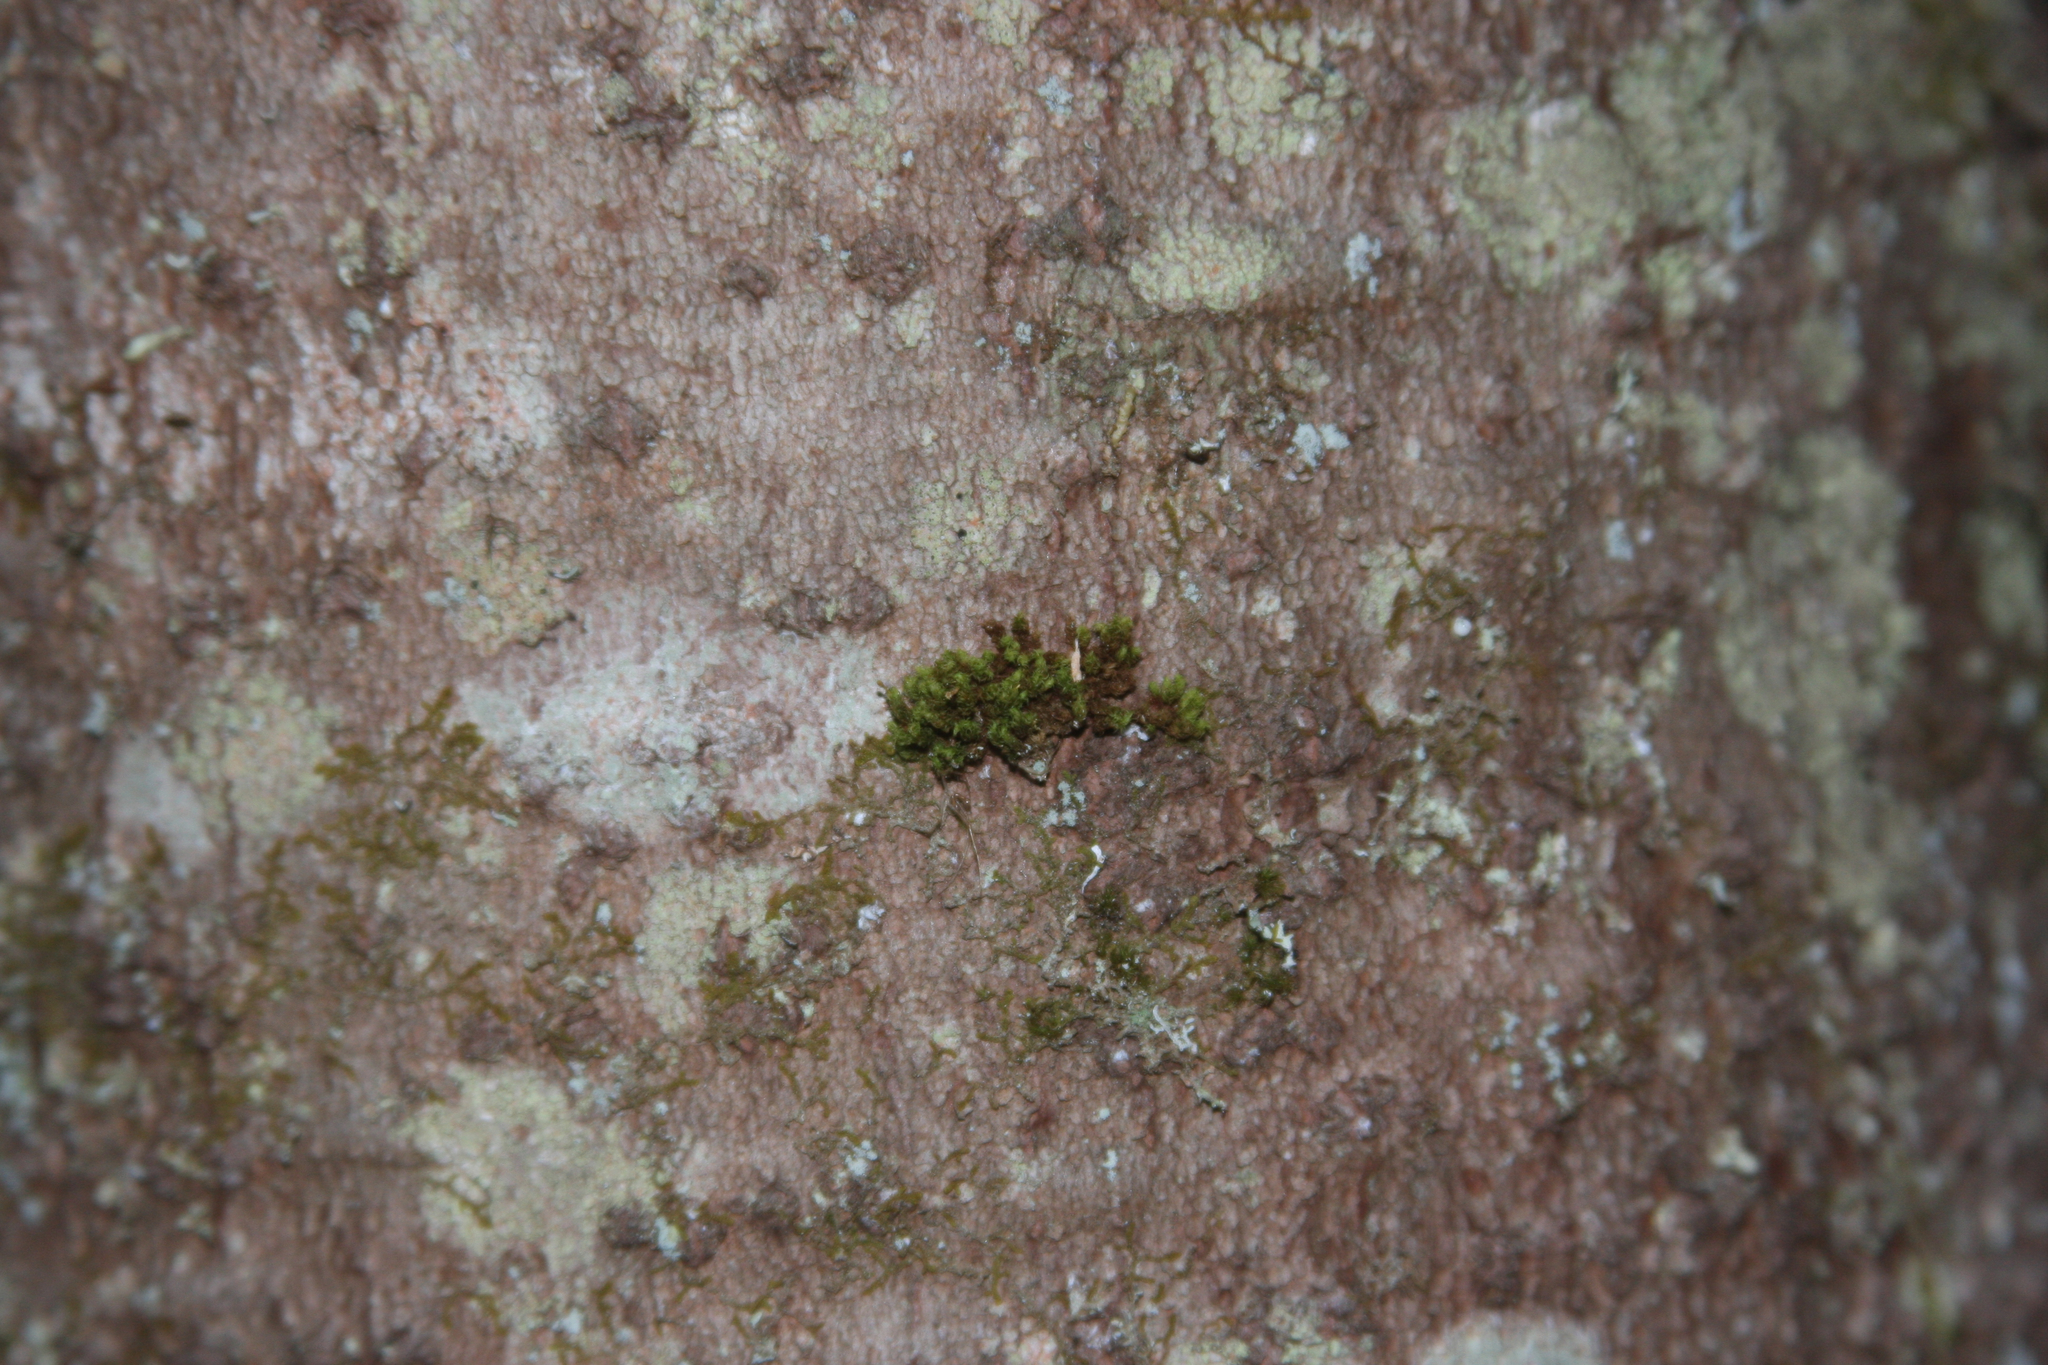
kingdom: Plantae
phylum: Bryophyta
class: Bryopsida
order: Orthotrichales
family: Orthotrichaceae
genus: Ulota
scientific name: Ulota crispa
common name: Crisped pincushion moss
